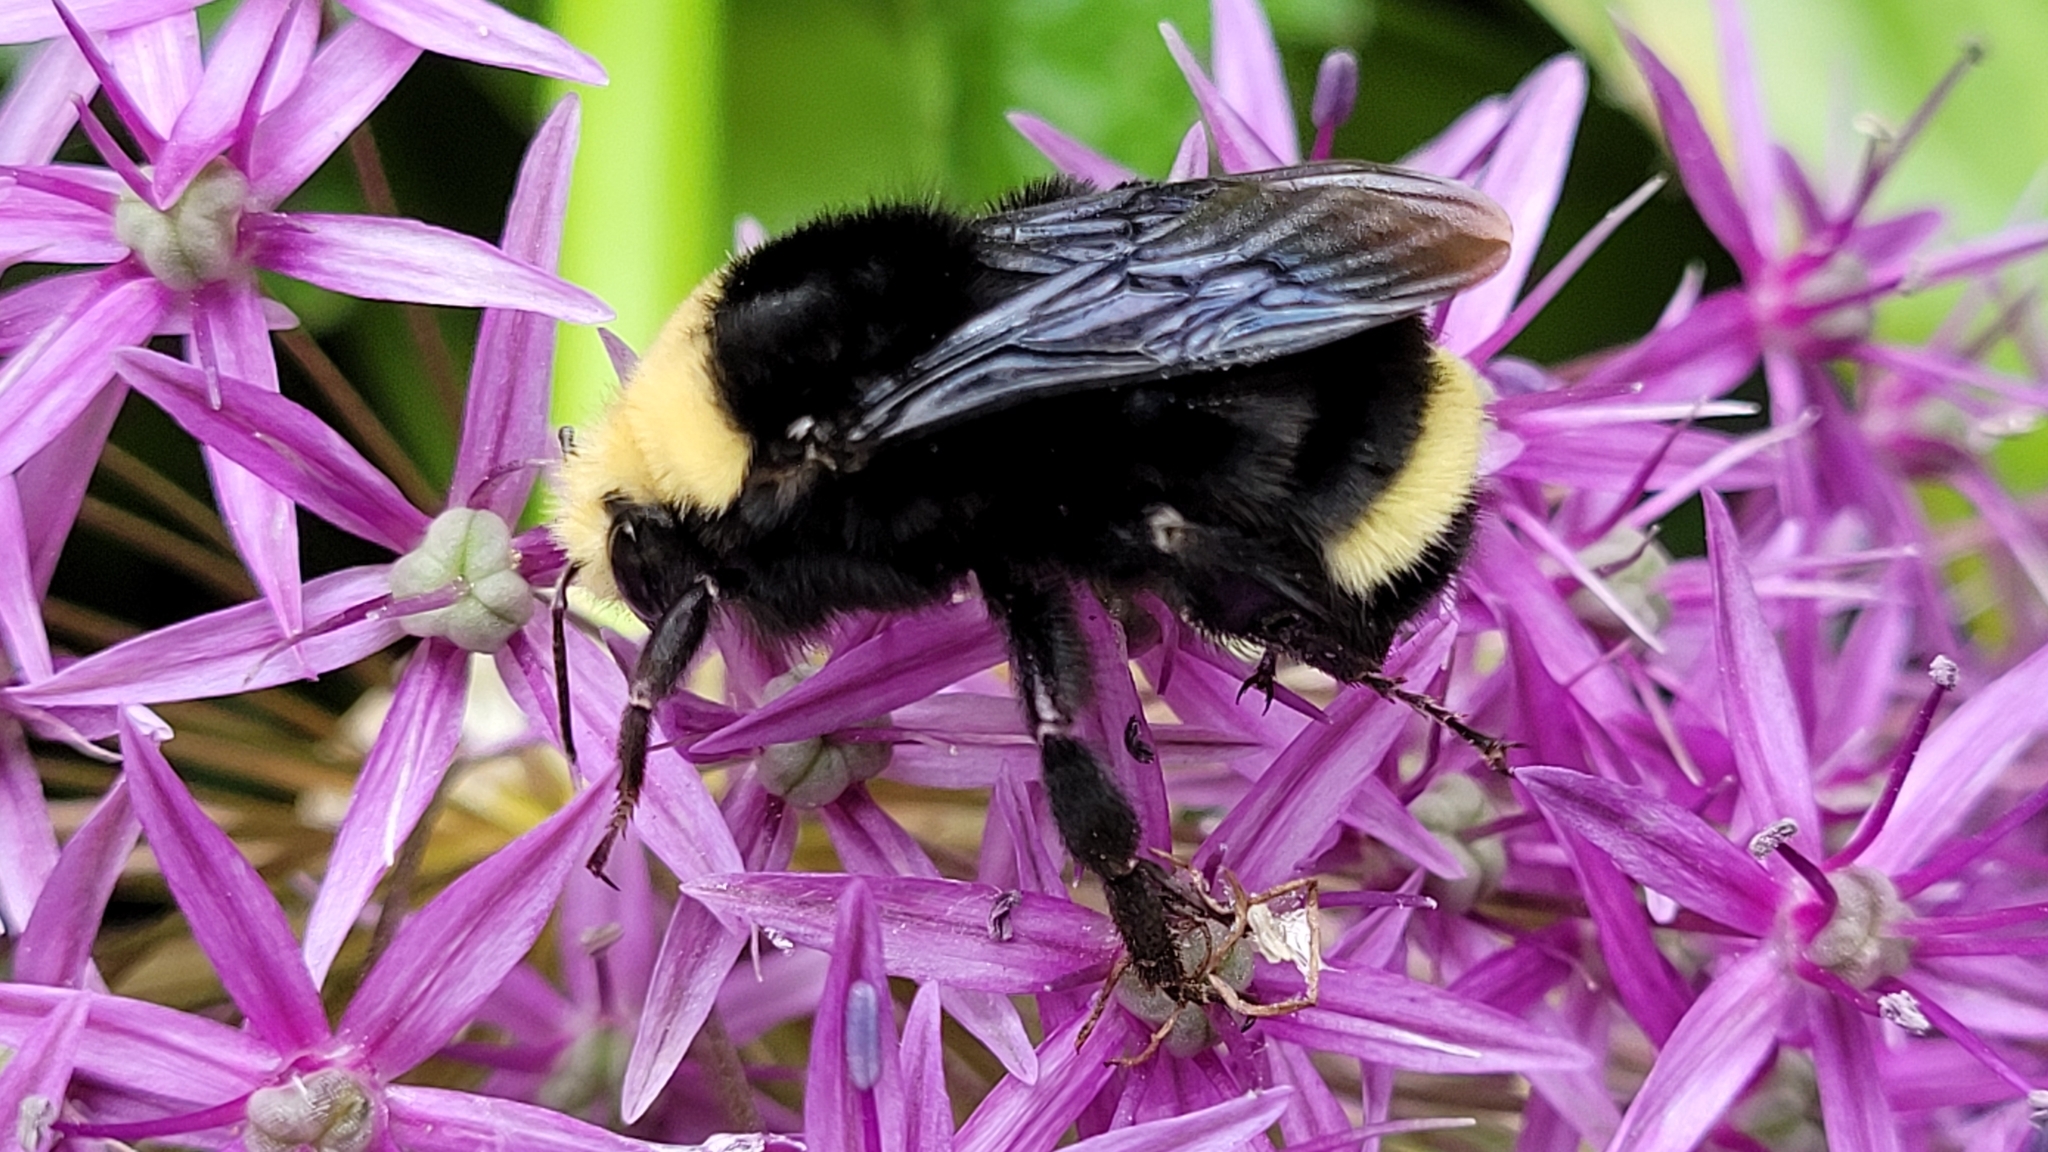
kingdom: Animalia
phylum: Arthropoda
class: Insecta
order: Hymenoptera
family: Apidae
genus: Bombus
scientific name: Bombus vosnesenskii
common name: Vosnesensky bumble bee
